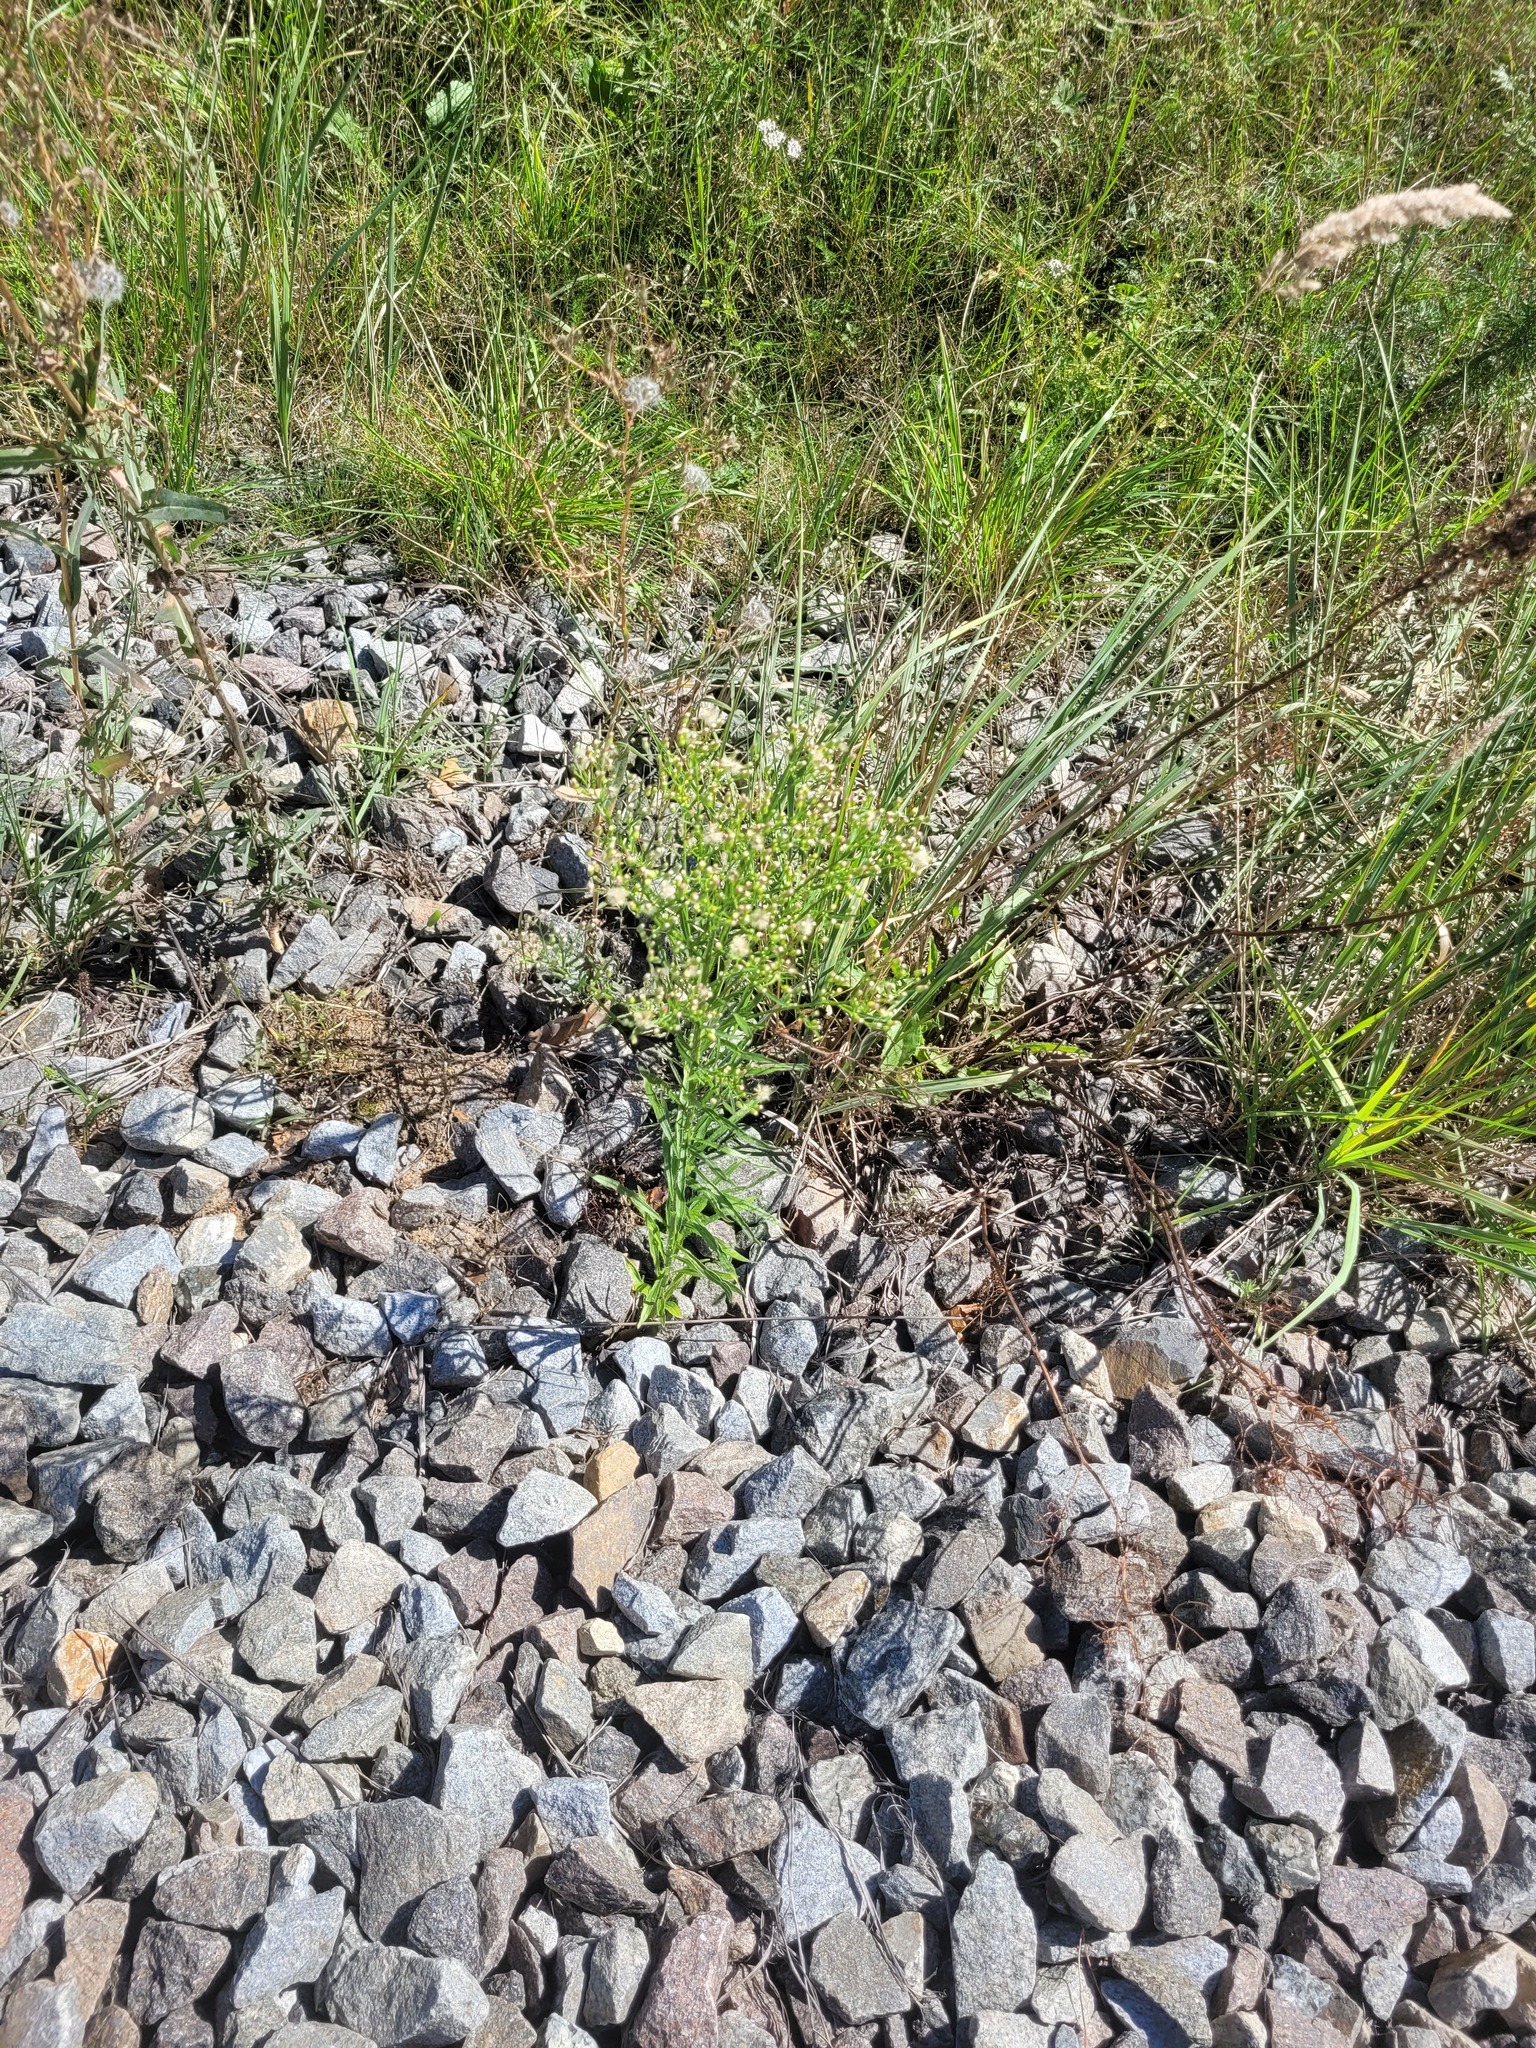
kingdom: Plantae
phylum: Tracheophyta
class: Magnoliopsida
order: Asterales
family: Asteraceae
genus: Erigeron
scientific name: Erigeron canadensis
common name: Canadian fleabane
